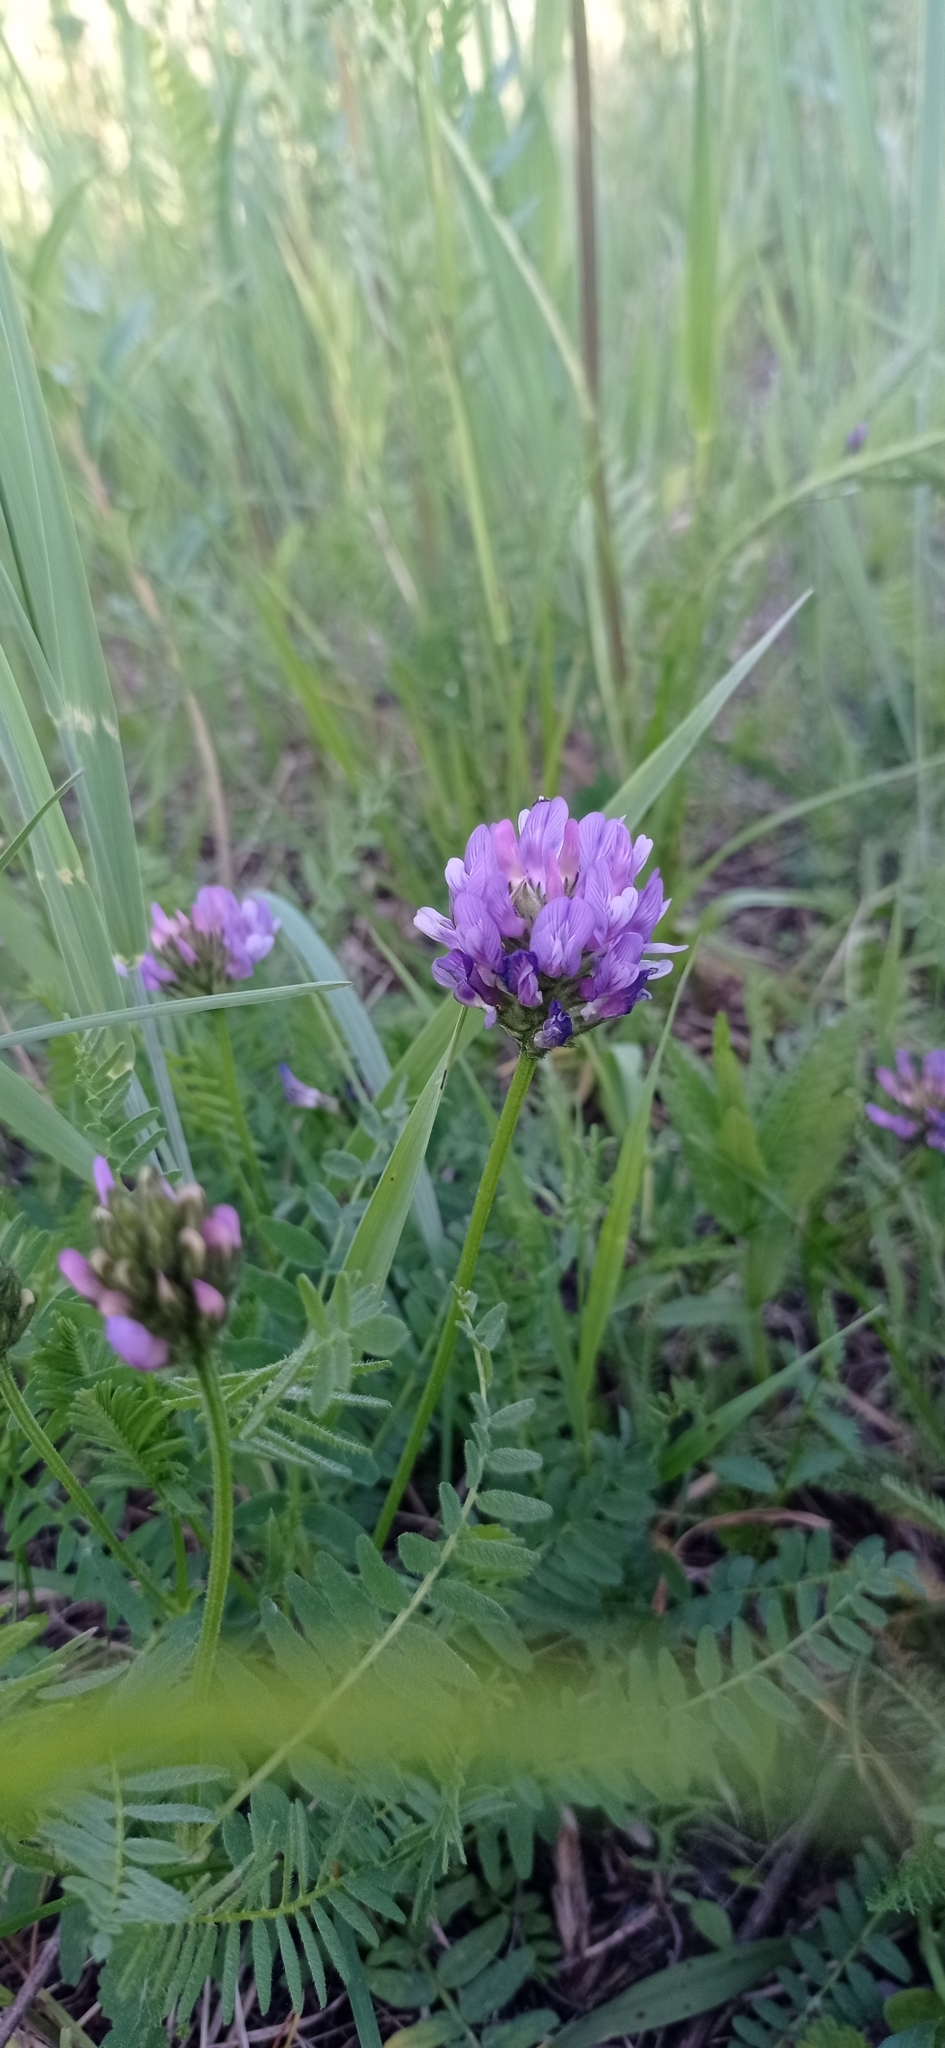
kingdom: Plantae
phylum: Tracheophyta
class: Magnoliopsida
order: Fabales
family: Fabaceae
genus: Astragalus
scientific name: Astragalus danicus
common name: Purple milk-vetch
